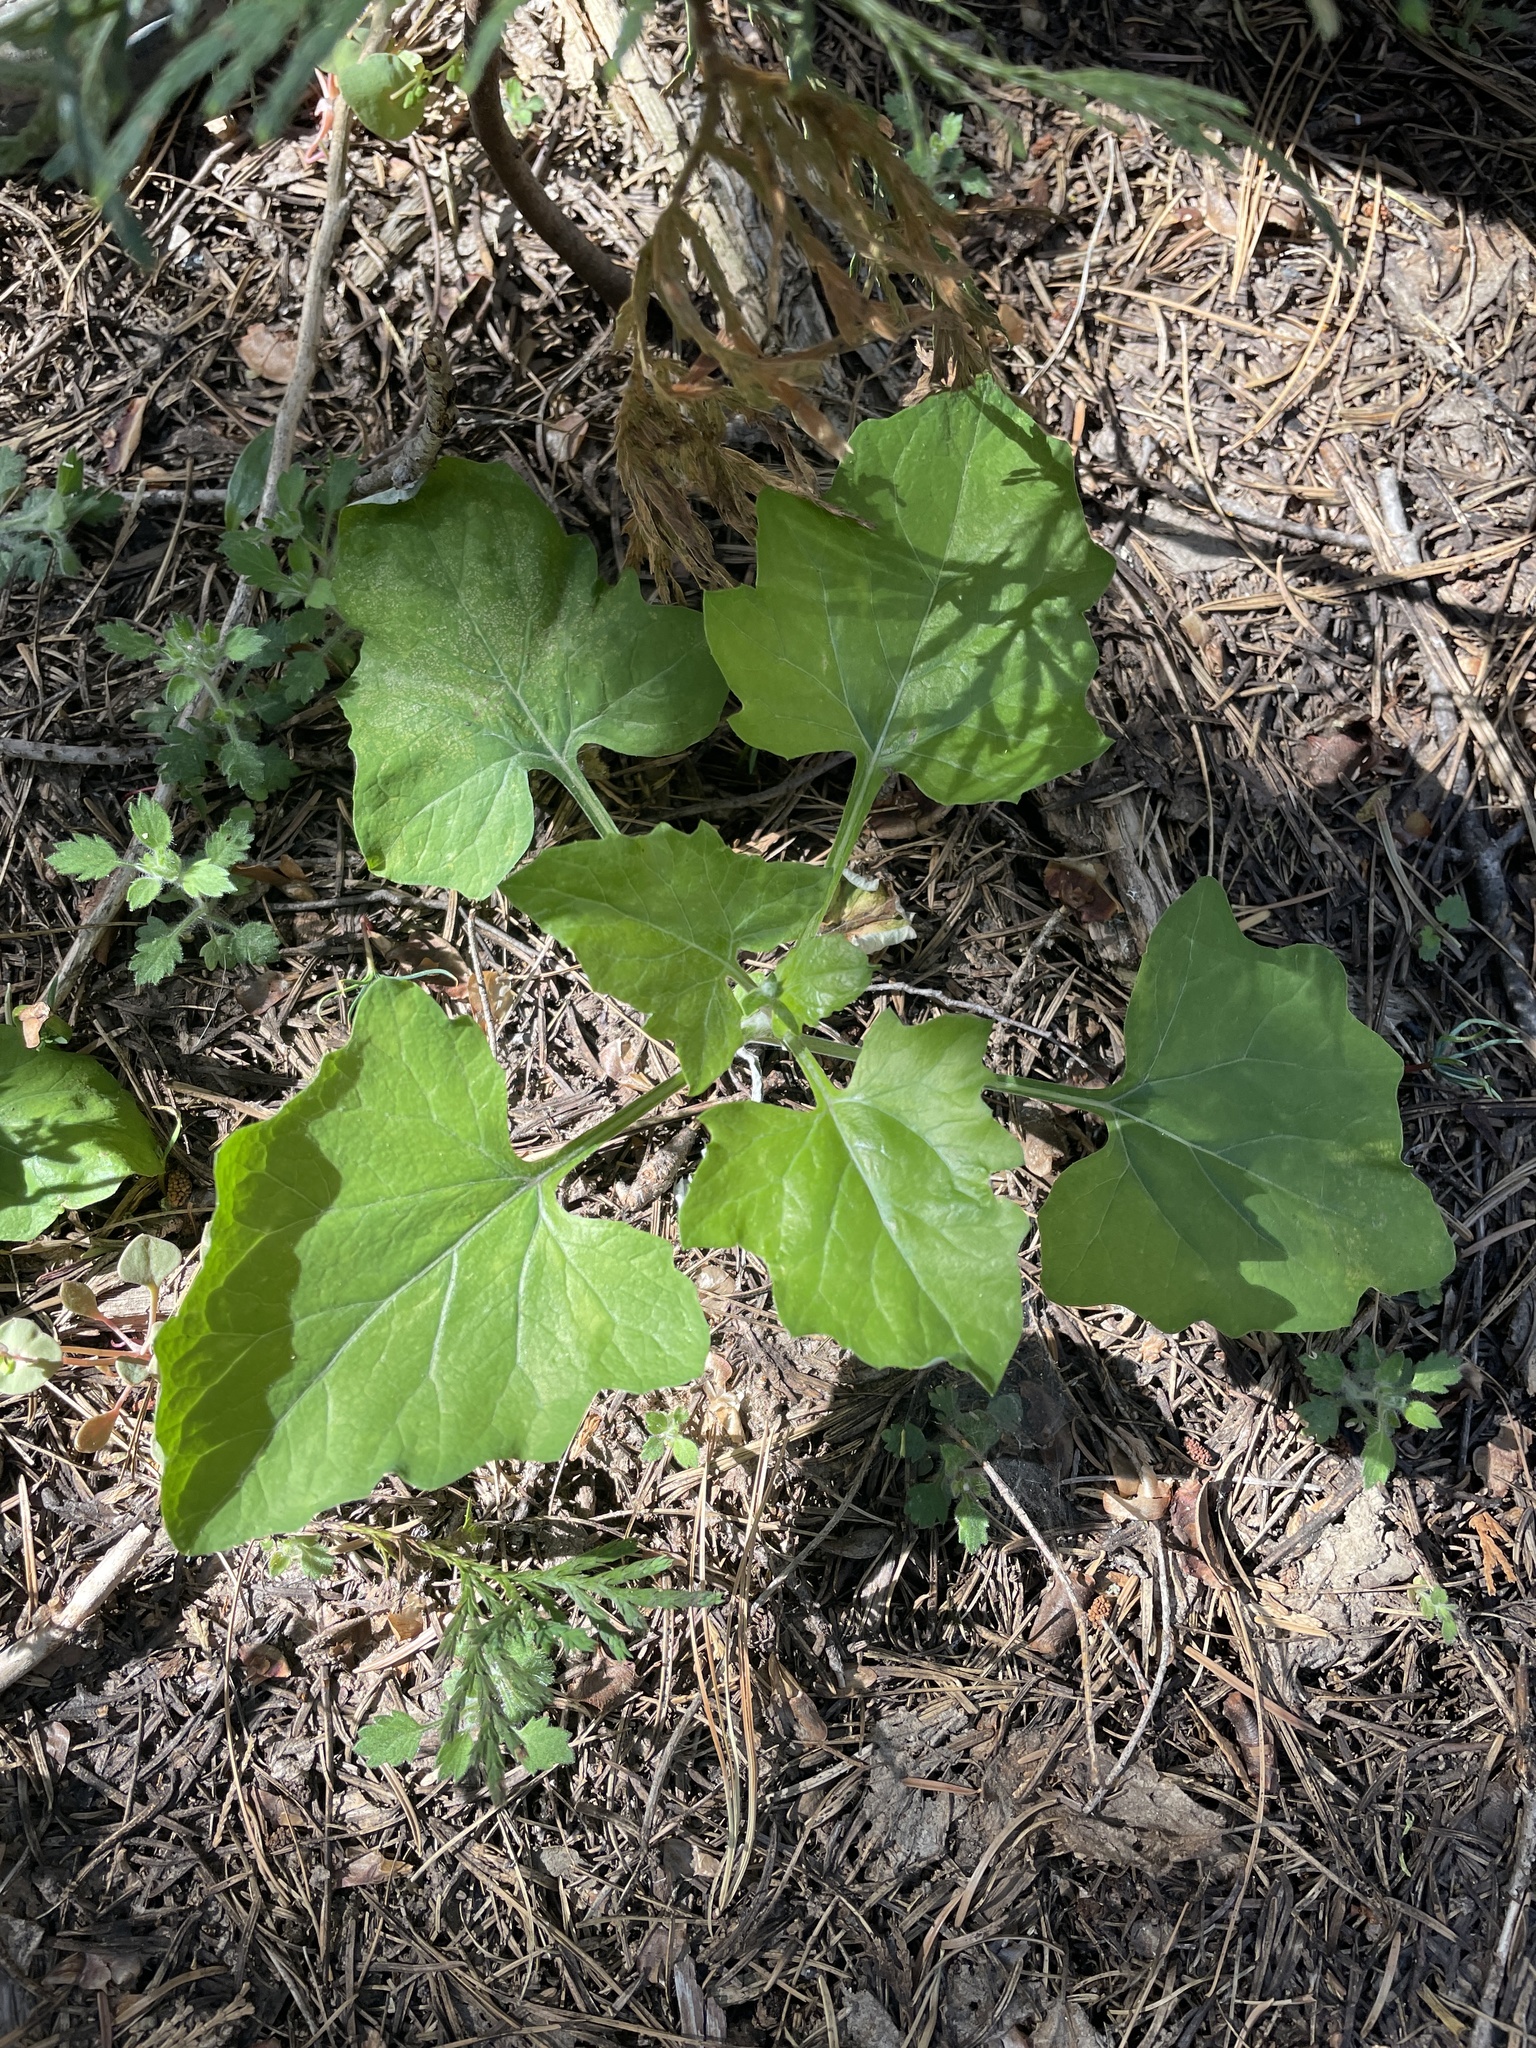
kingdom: Plantae
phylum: Tracheophyta
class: Magnoliopsida
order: Asterales
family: Asteraceae
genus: Adenocaulon
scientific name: Adenocaulon bicolor
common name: Trailplant
